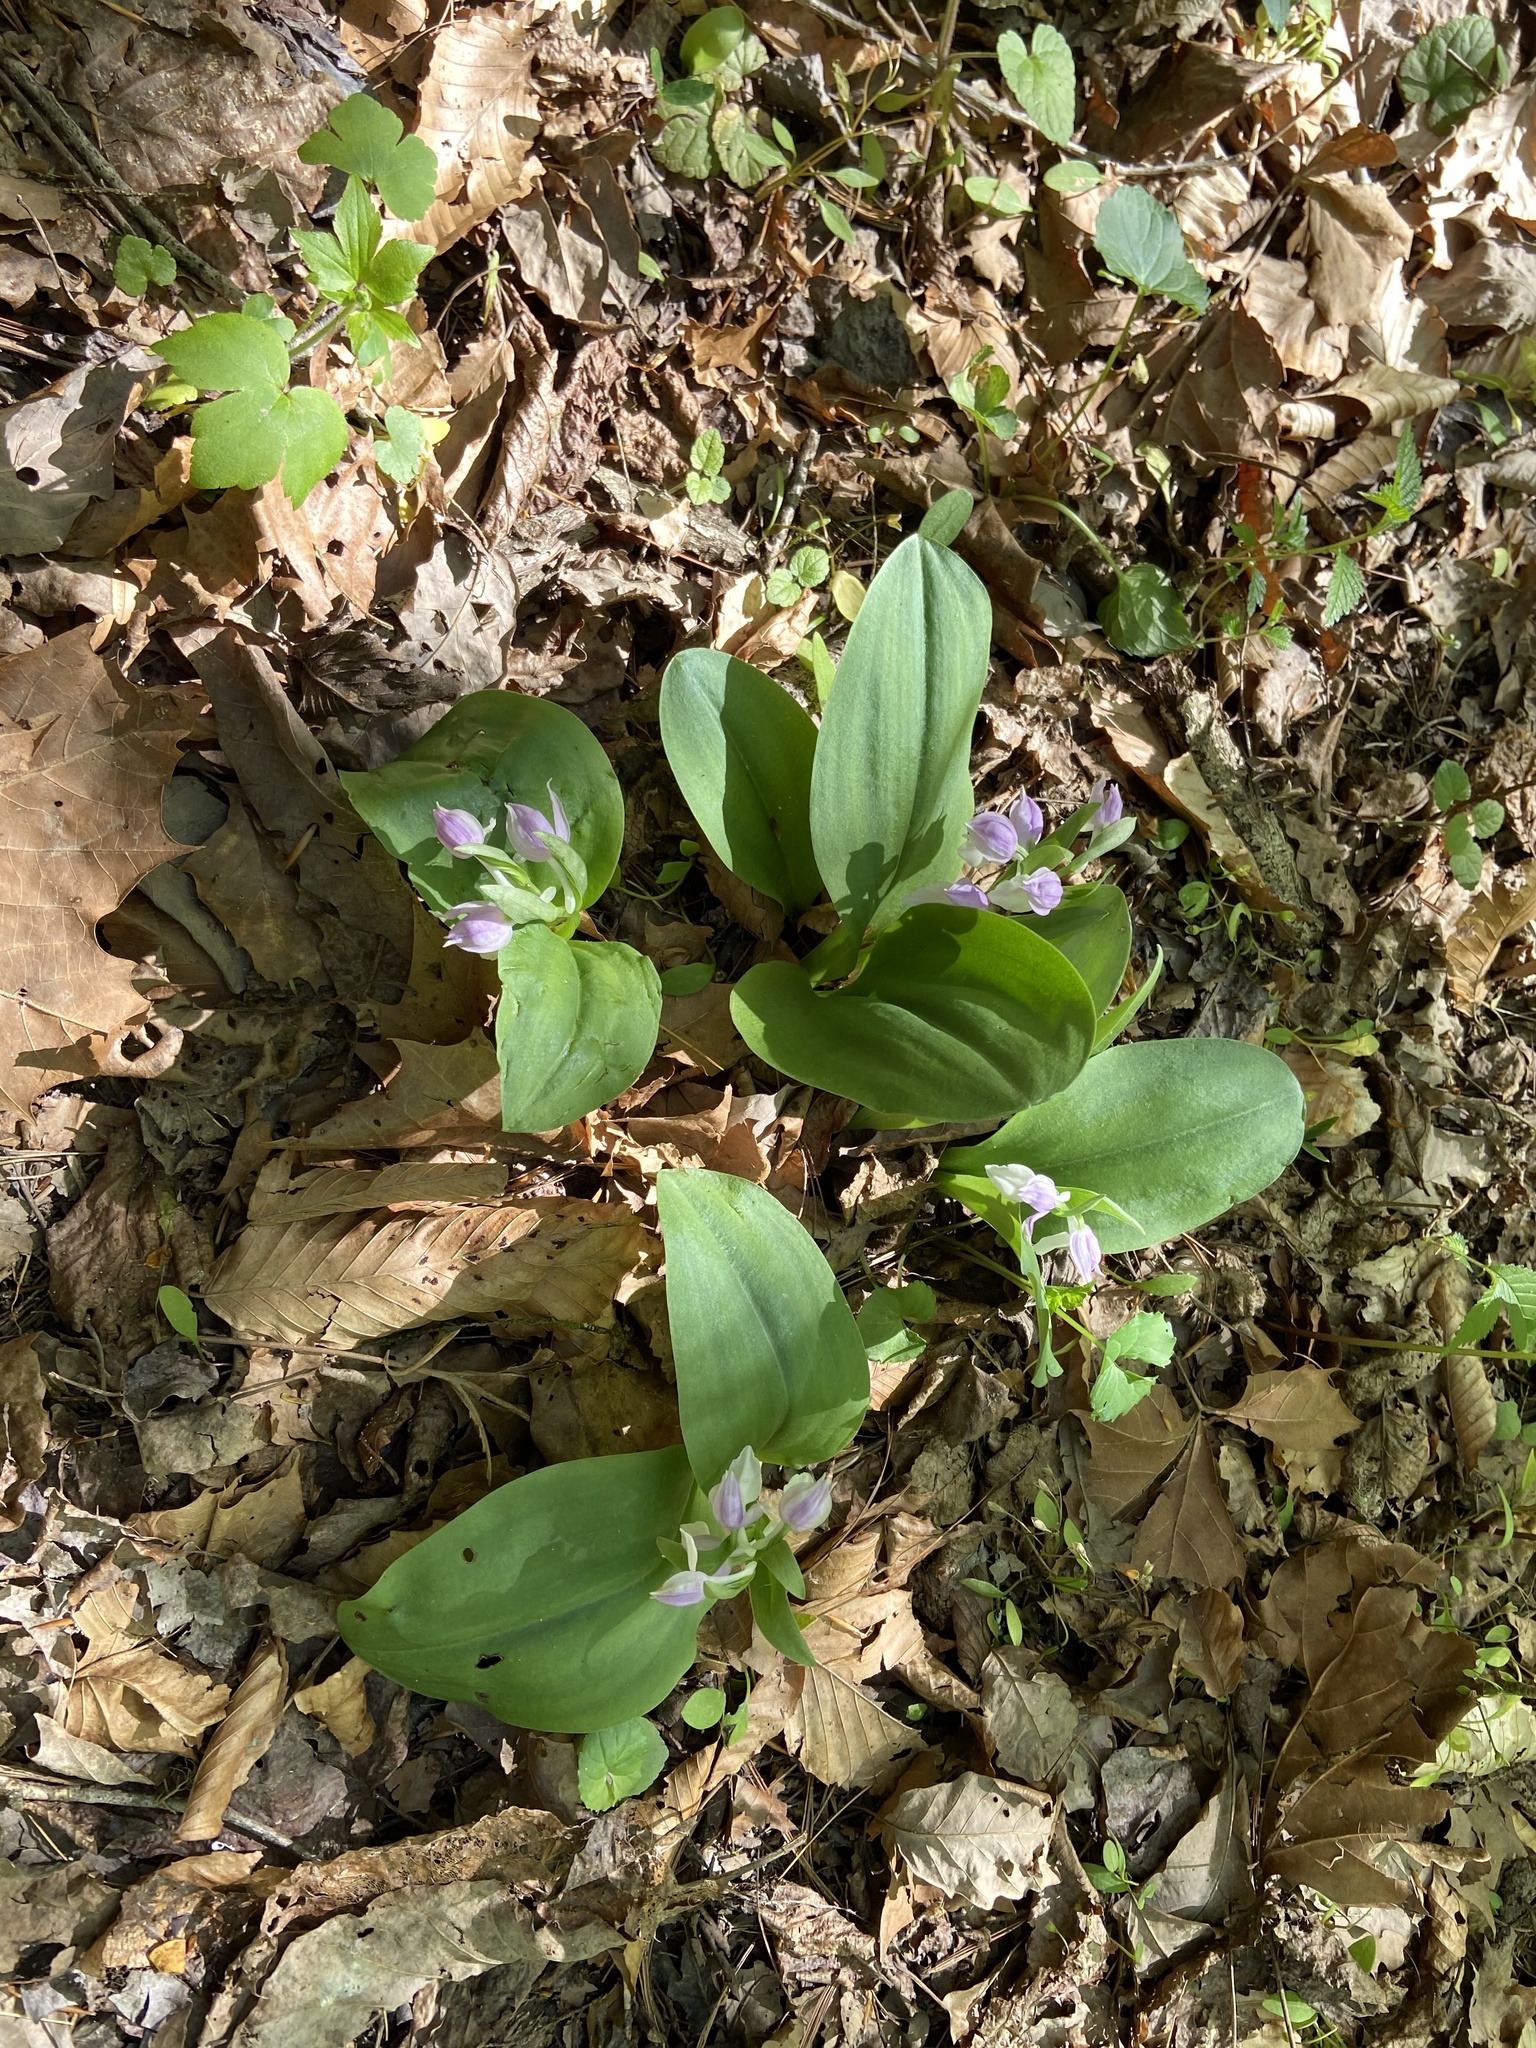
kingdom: Plantae
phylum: Tracheophyta
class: Liliopsida
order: Asparagales
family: Orchidaceae
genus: Galearis
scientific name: Galearis spectabilis
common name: Purple-hooded orchis
